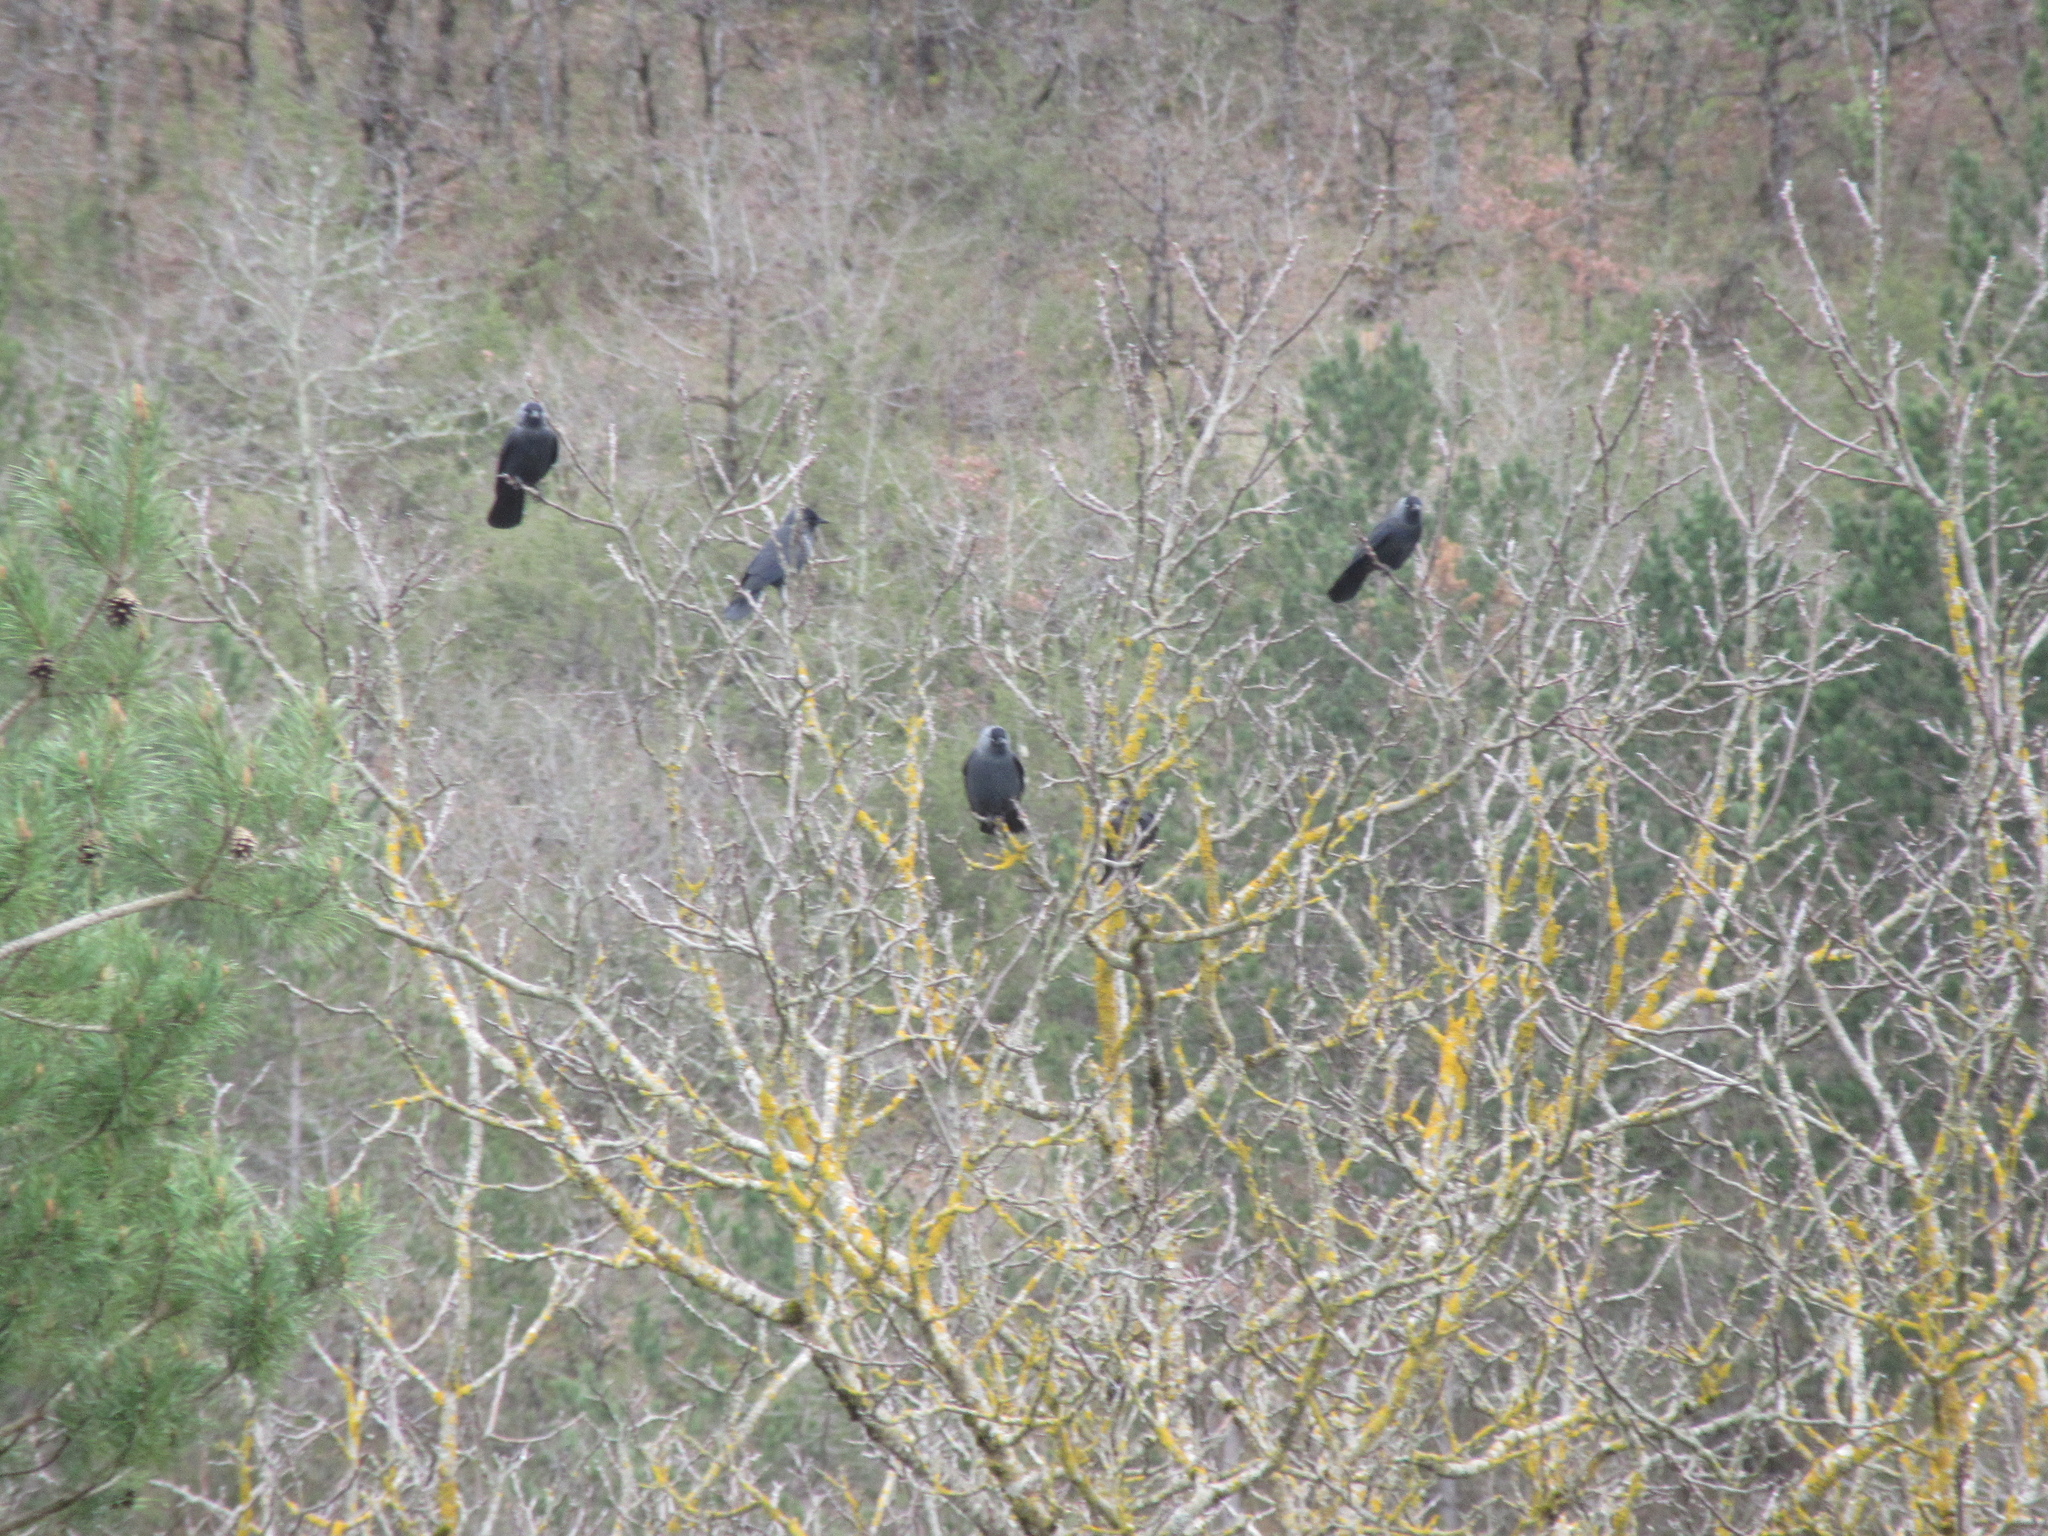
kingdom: Animalia
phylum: Chordata
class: Aves
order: Passeriformes
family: Corvidae
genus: Coloeus
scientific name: Coloeus monedula
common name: Western jackdaw
